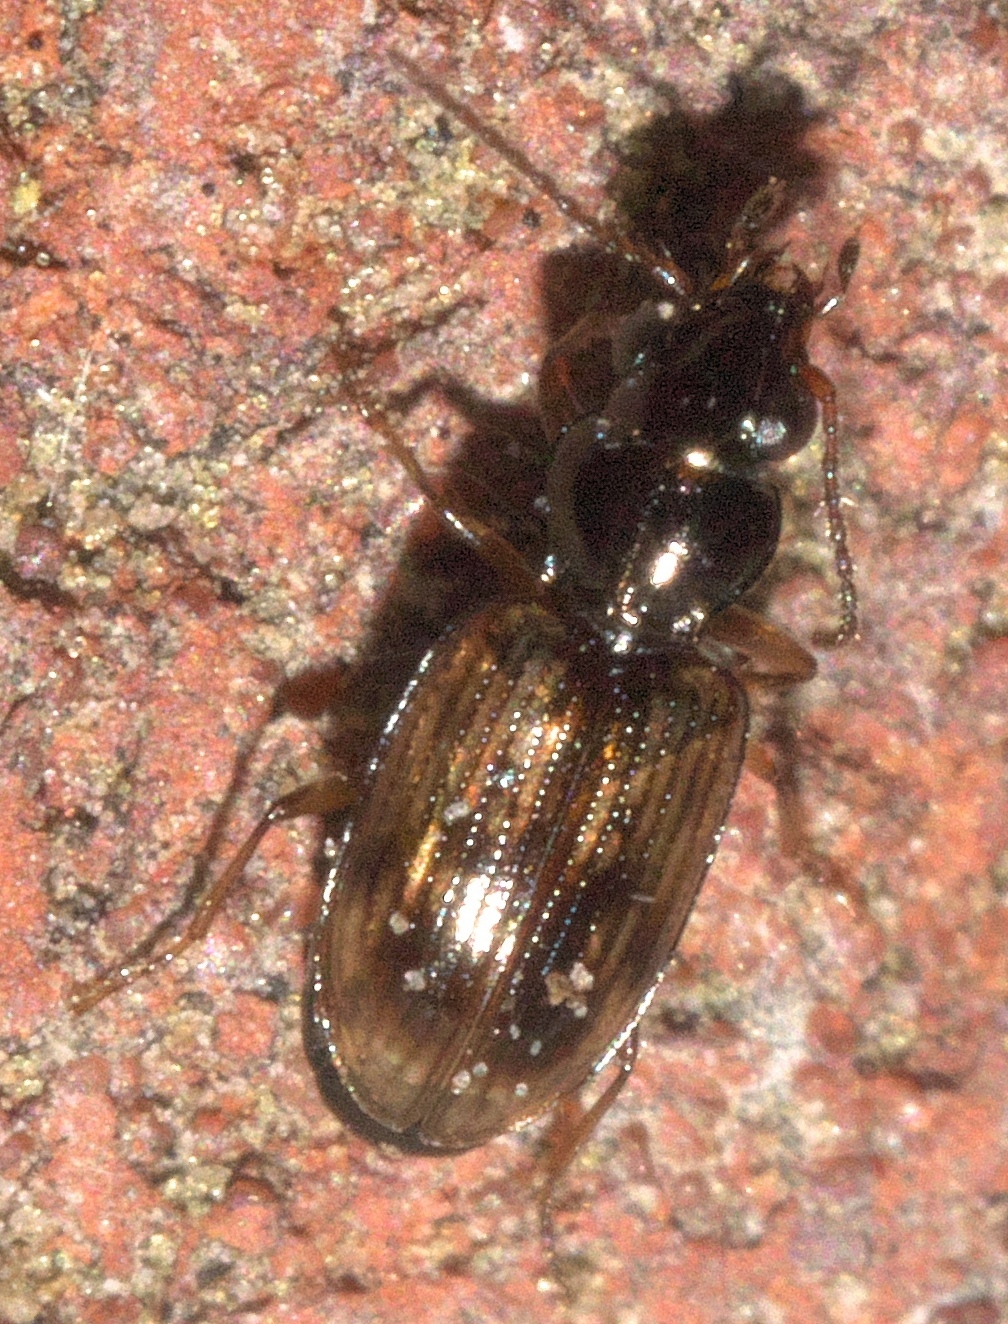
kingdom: Animalia
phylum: Arthropoda
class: Insecta
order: Coleoptera
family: Carabidae
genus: Bembidion
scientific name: Bembidion impotens
